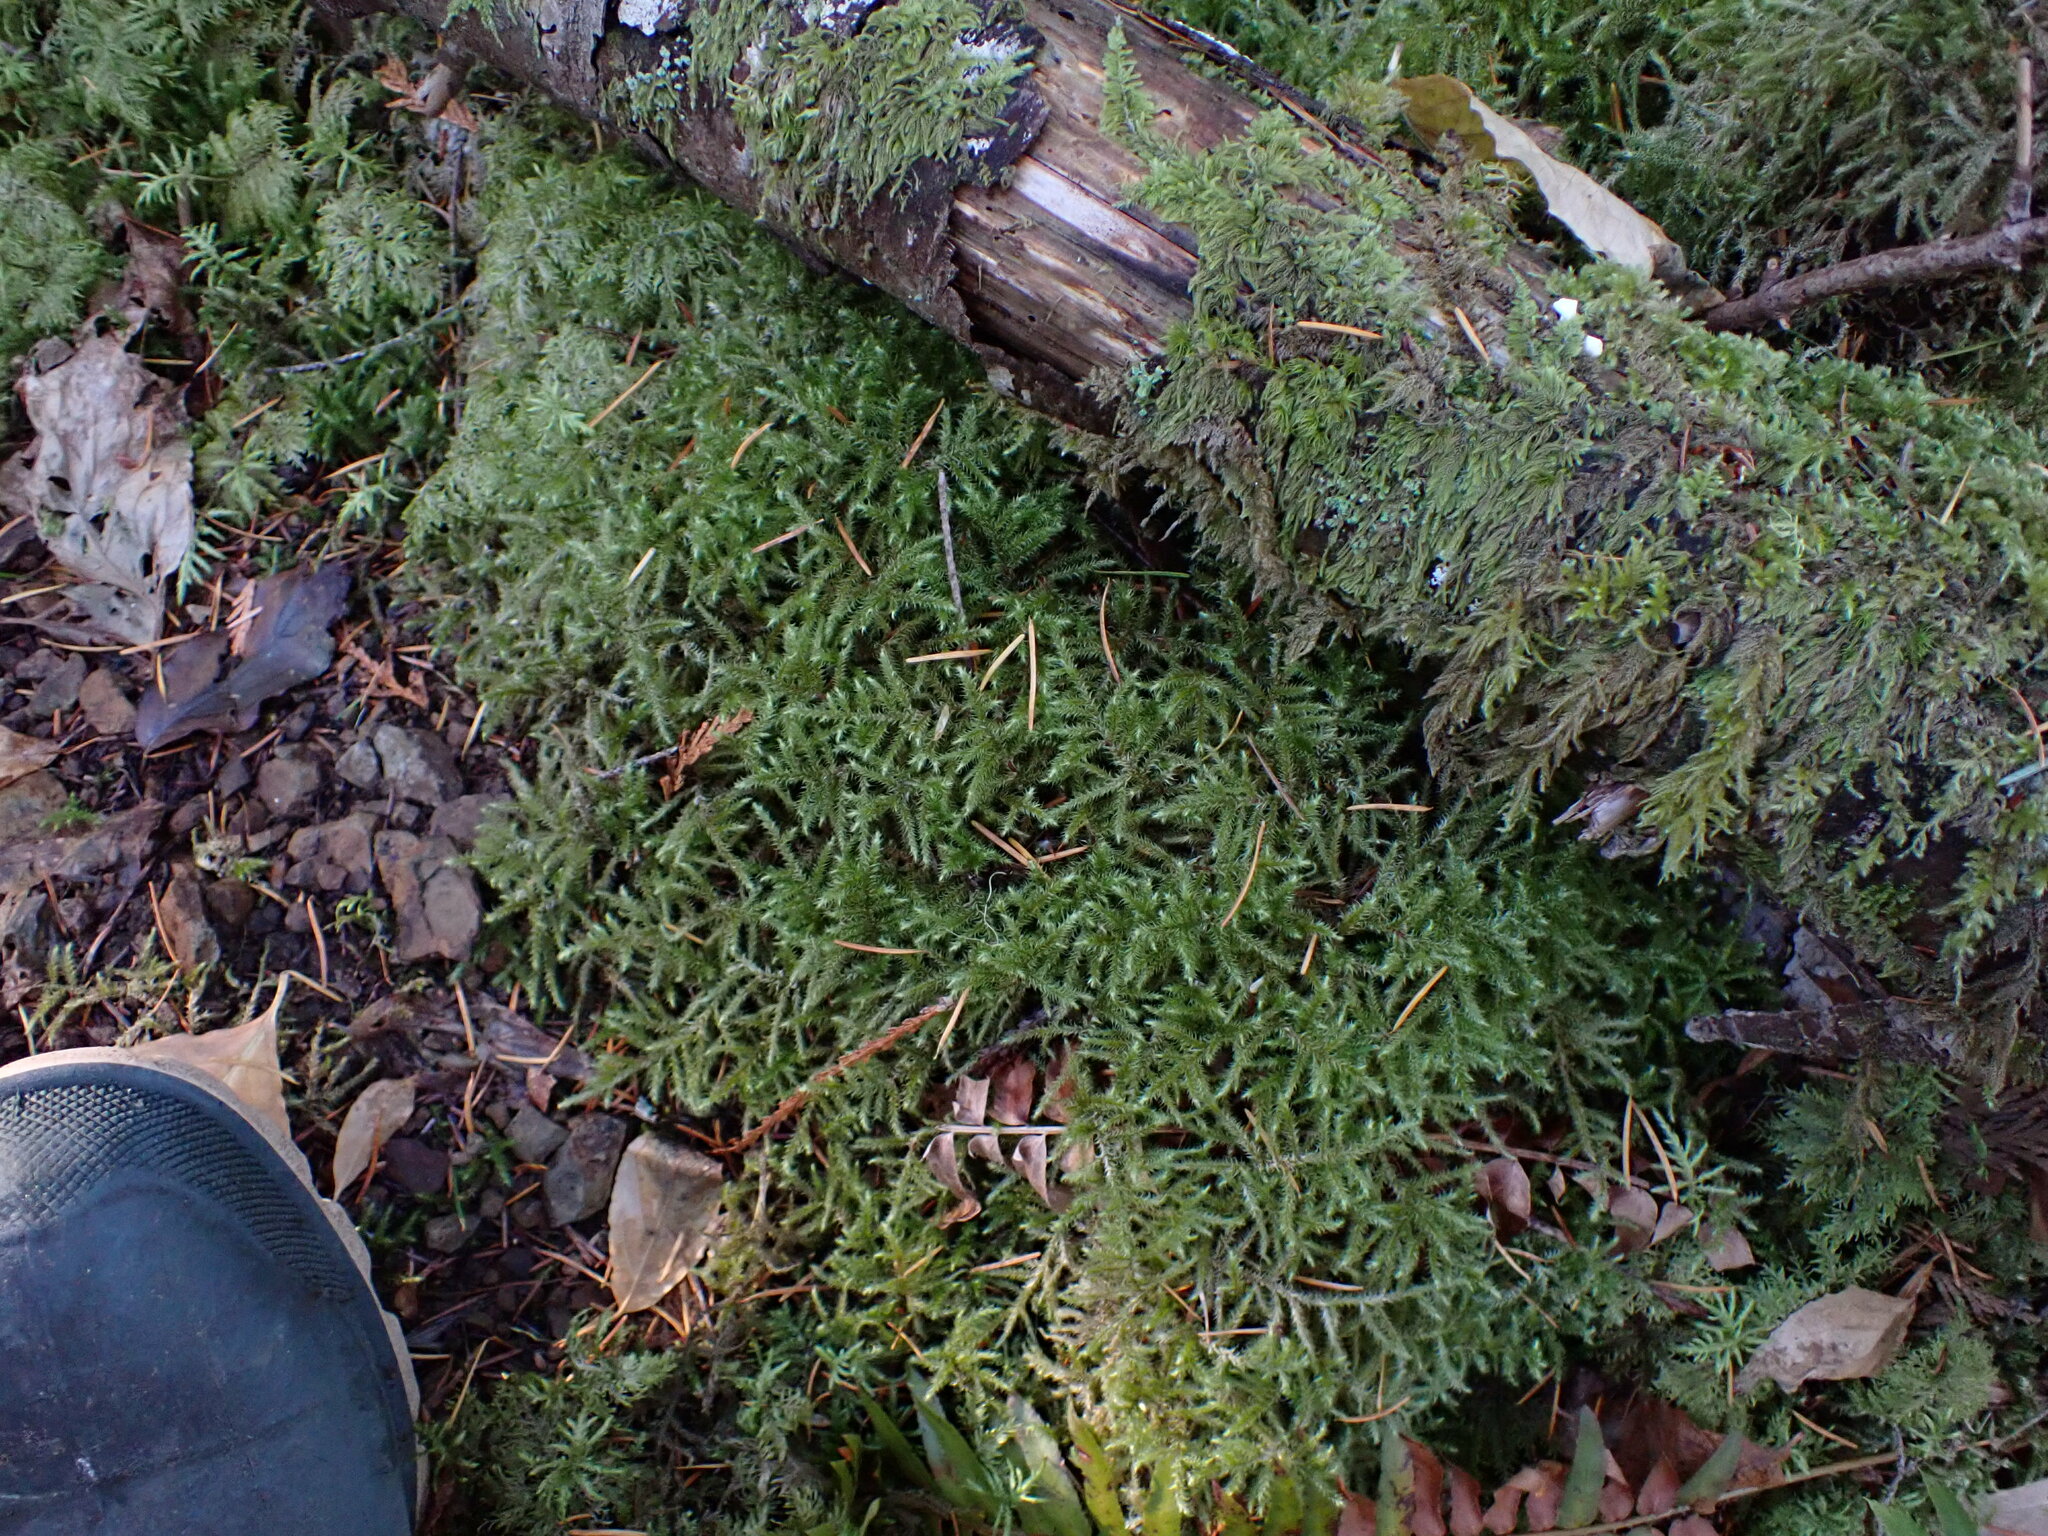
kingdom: Plantae
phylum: Bryophyta
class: Bryopsida
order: Hypnales
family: Hylocomiaceae
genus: Rhytidiadelphus
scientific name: Rhytidiadelphus loreus
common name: Lanky moss
